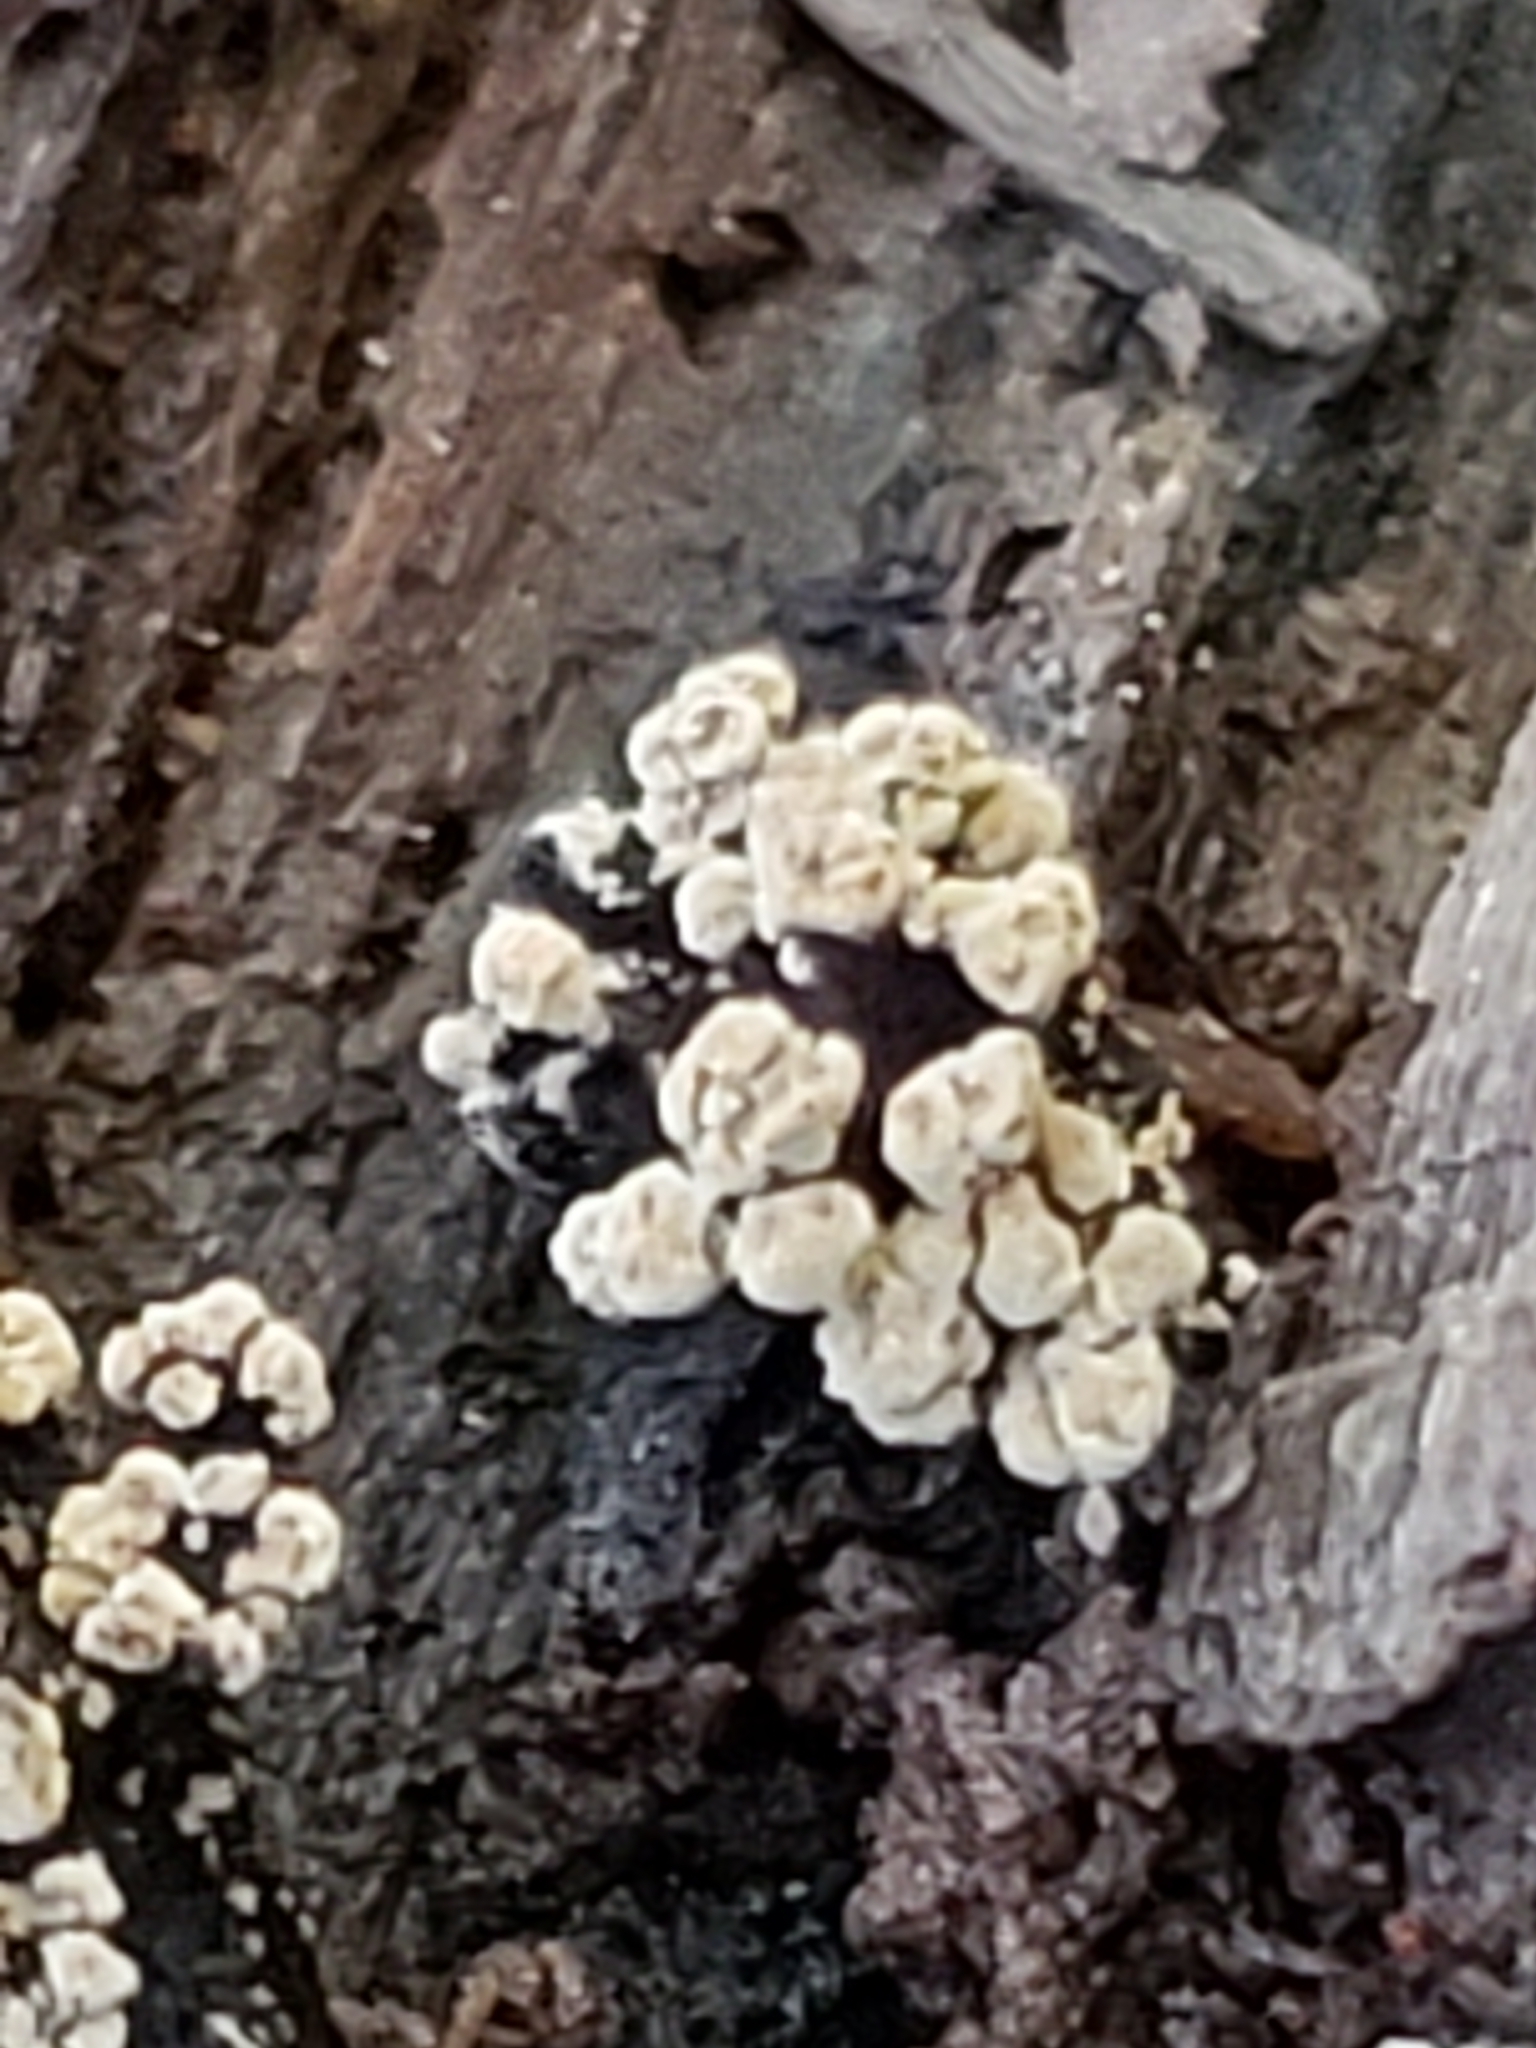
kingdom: Fungi
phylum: Basidiomycota
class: Agaricomycetes
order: Russulales
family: Stereaceae
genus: Xylobolus
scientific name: Xylobolus frustulatus
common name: Ceramic parchment
